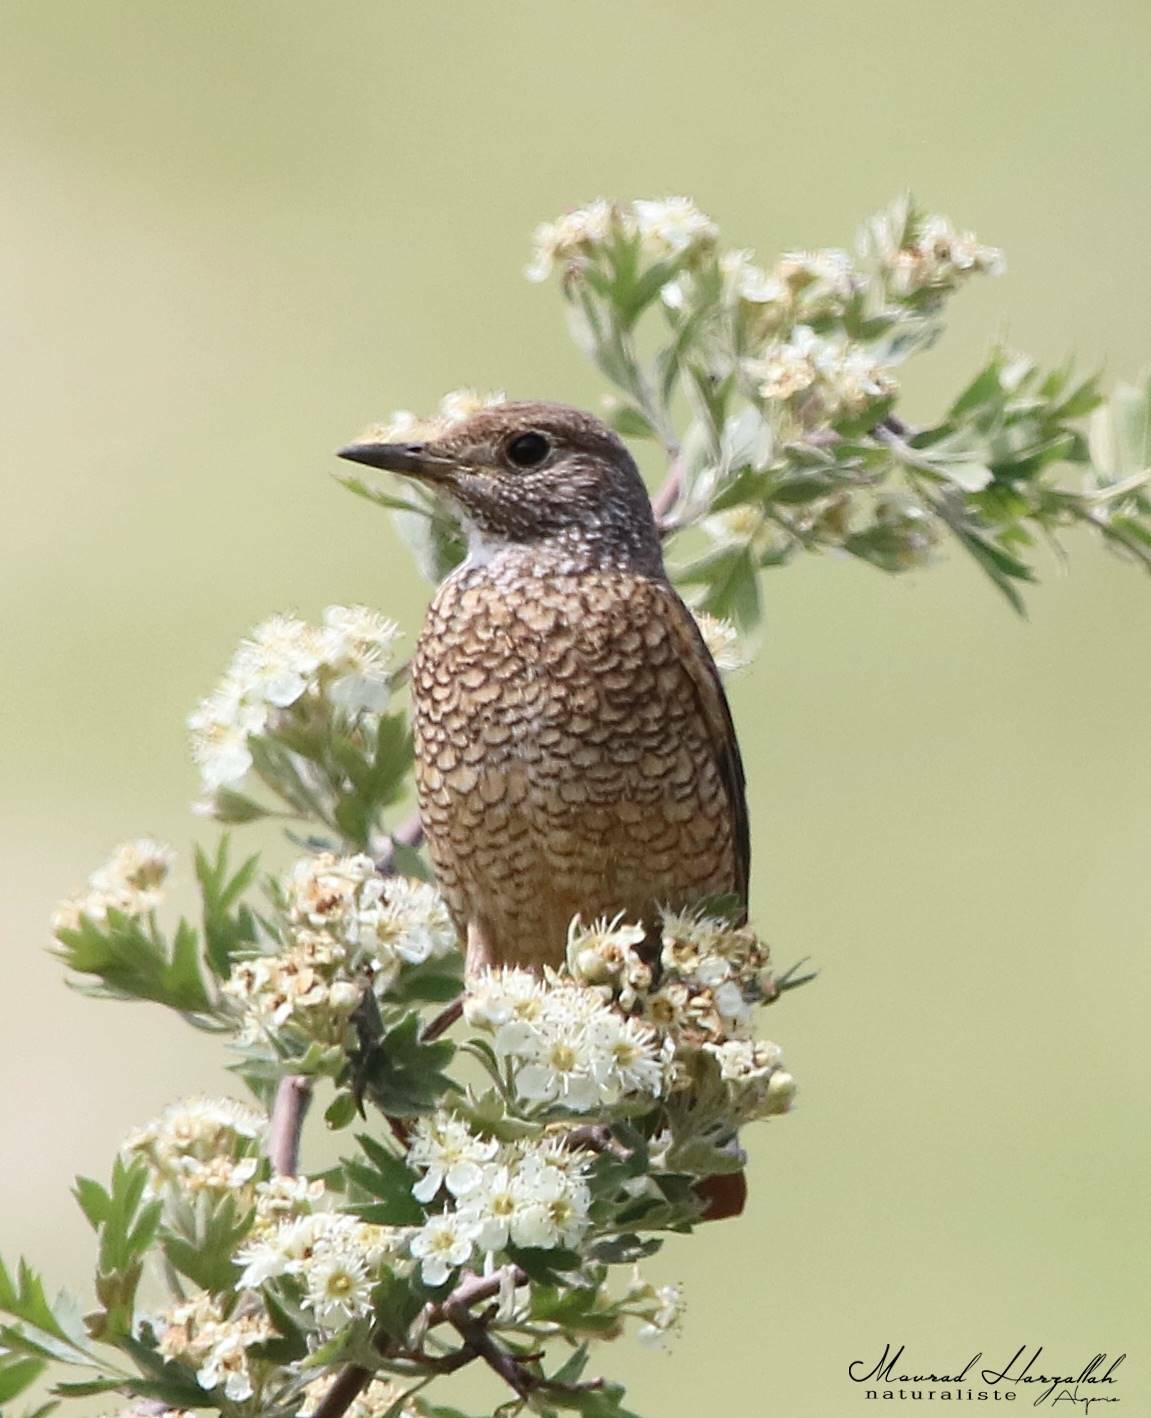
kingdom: Animalia
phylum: Chordata
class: Aves
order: Passeriformes
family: Muscicapidae
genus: Monticola
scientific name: Monticola saxatilis
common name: Rufous-tailed rock thrush
